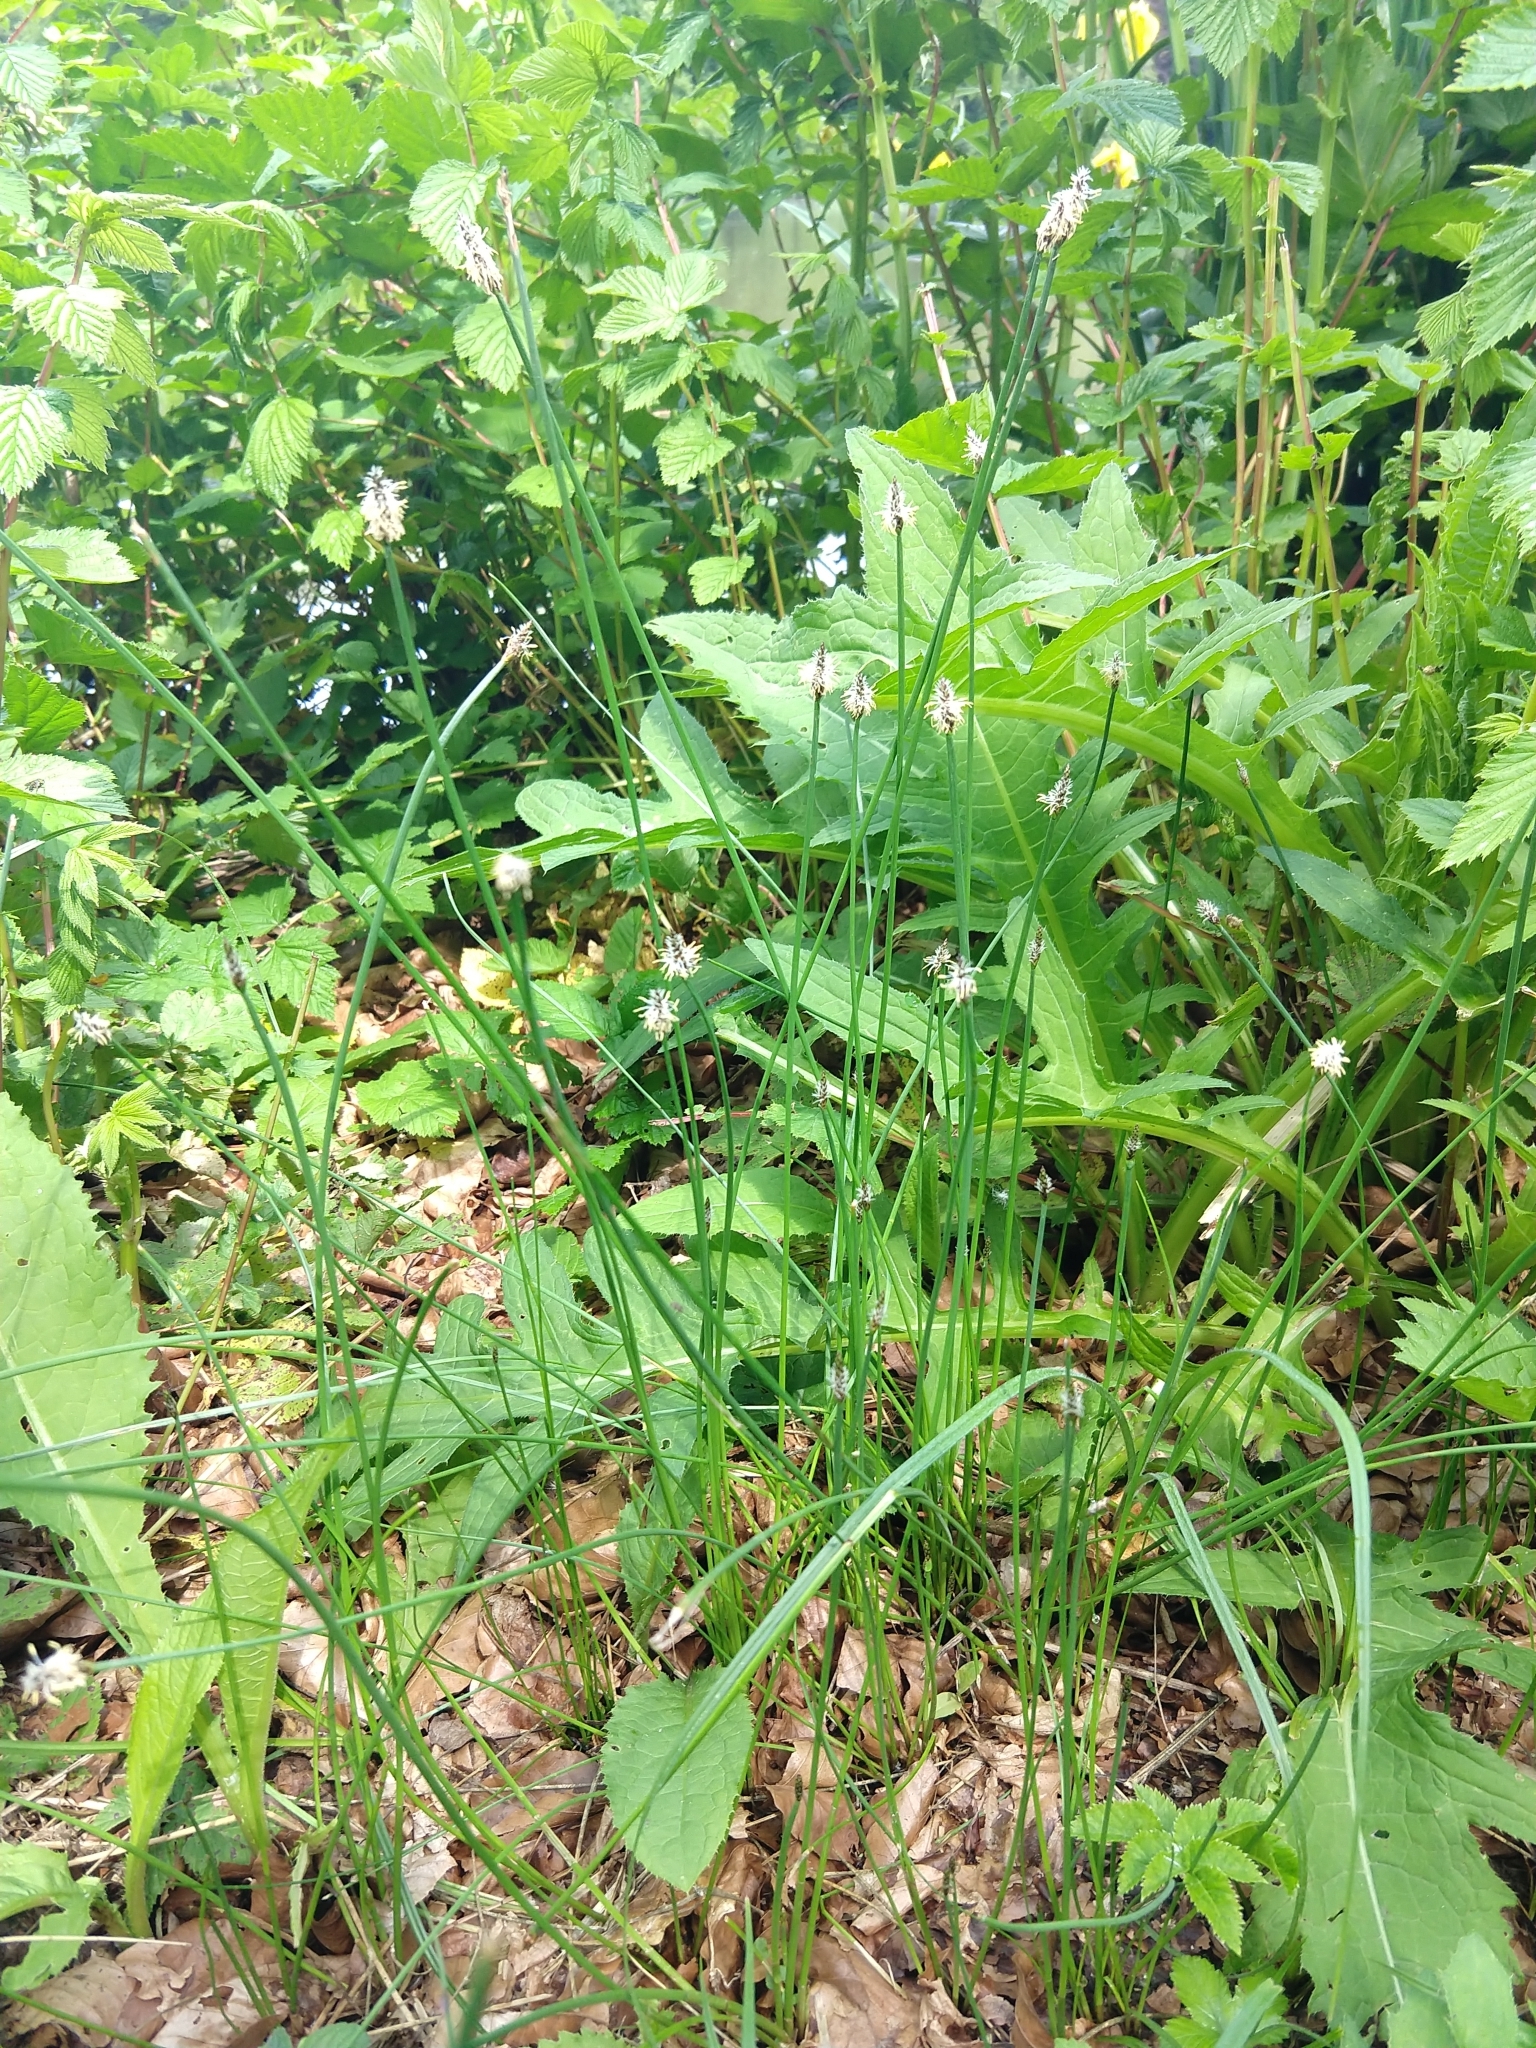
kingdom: Plantae
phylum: Tracheophyta
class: Liliopsida
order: Poales
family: Cyperaceae
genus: Eleocharis
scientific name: Eleocharis palustris
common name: Common spike-rush
